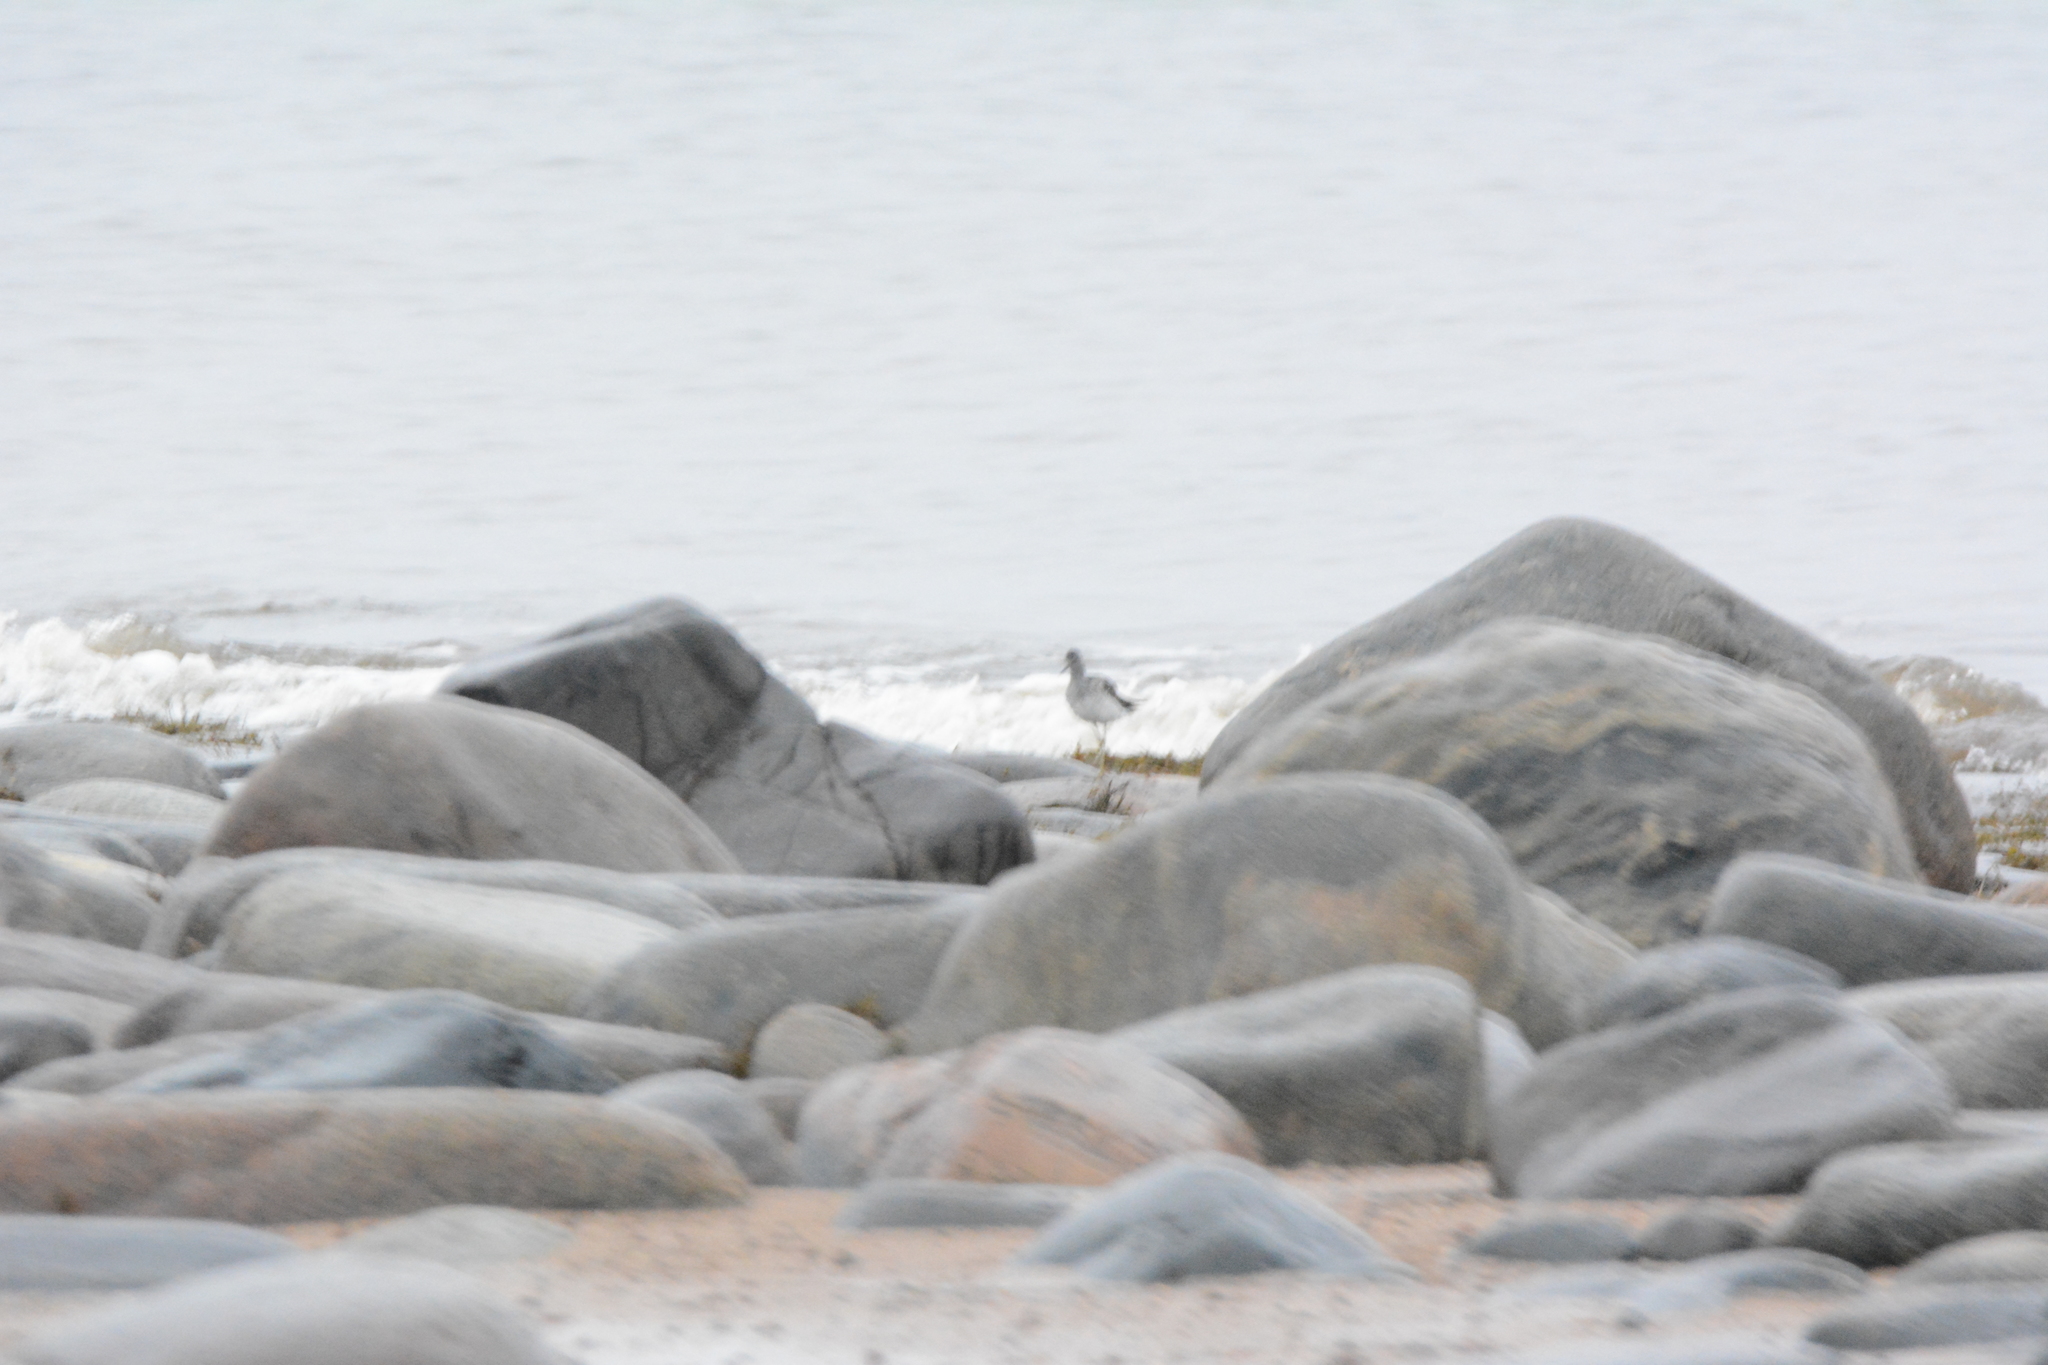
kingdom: Animalia
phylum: Chordata
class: Aves
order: Charadriiformes
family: Scolopacidae
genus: Tringa
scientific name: Tringa nebularia
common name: Common greenshank
